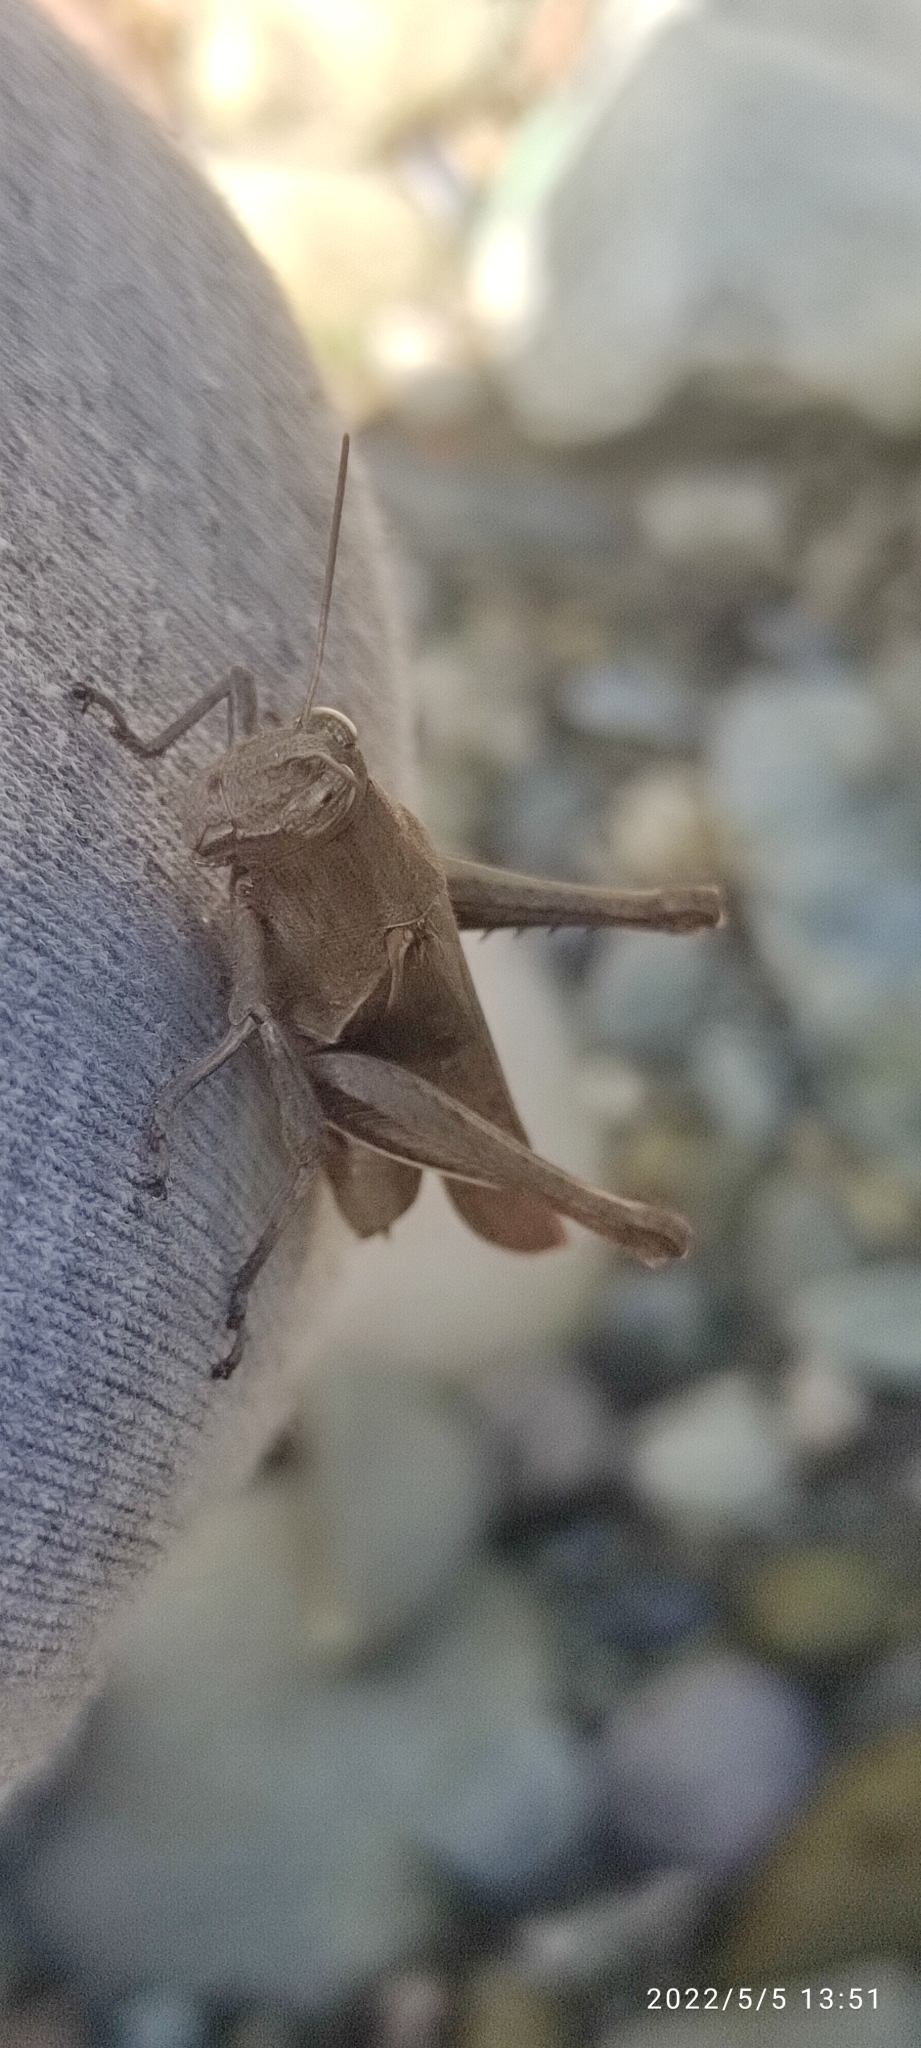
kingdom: Animalia
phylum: Arthropoda
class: Insecta
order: Orthoptera
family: Acrididae
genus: Abracris
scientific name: Abracris flavolineata
